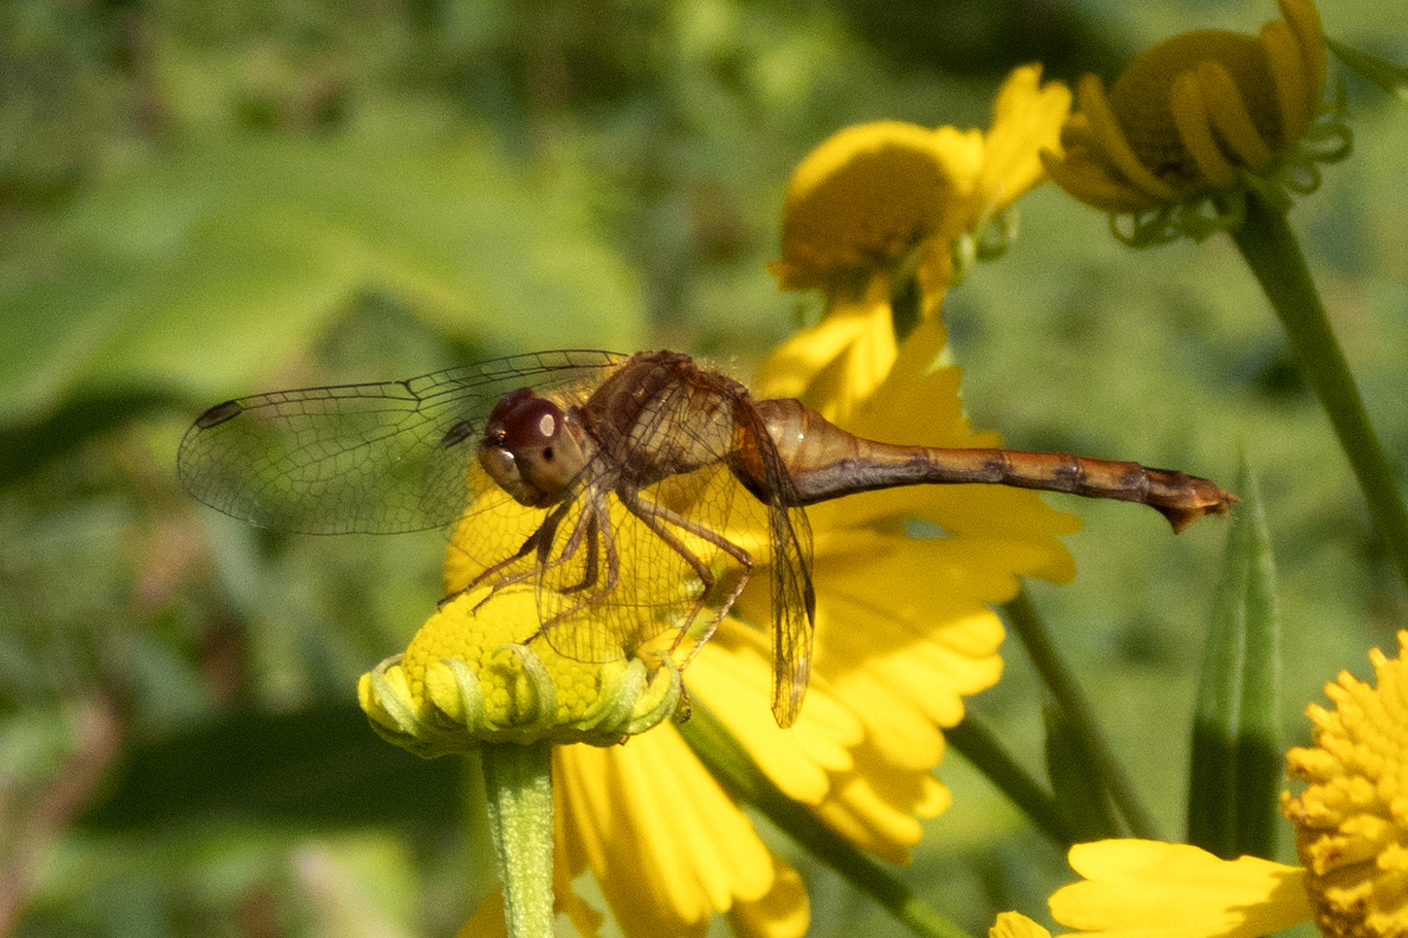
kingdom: Animalia
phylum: Arthropoda
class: Insecta
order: Odonata
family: Libellulidae
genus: Sympetrum
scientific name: Sympetrum vicinum
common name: Autumn meadowhawk
